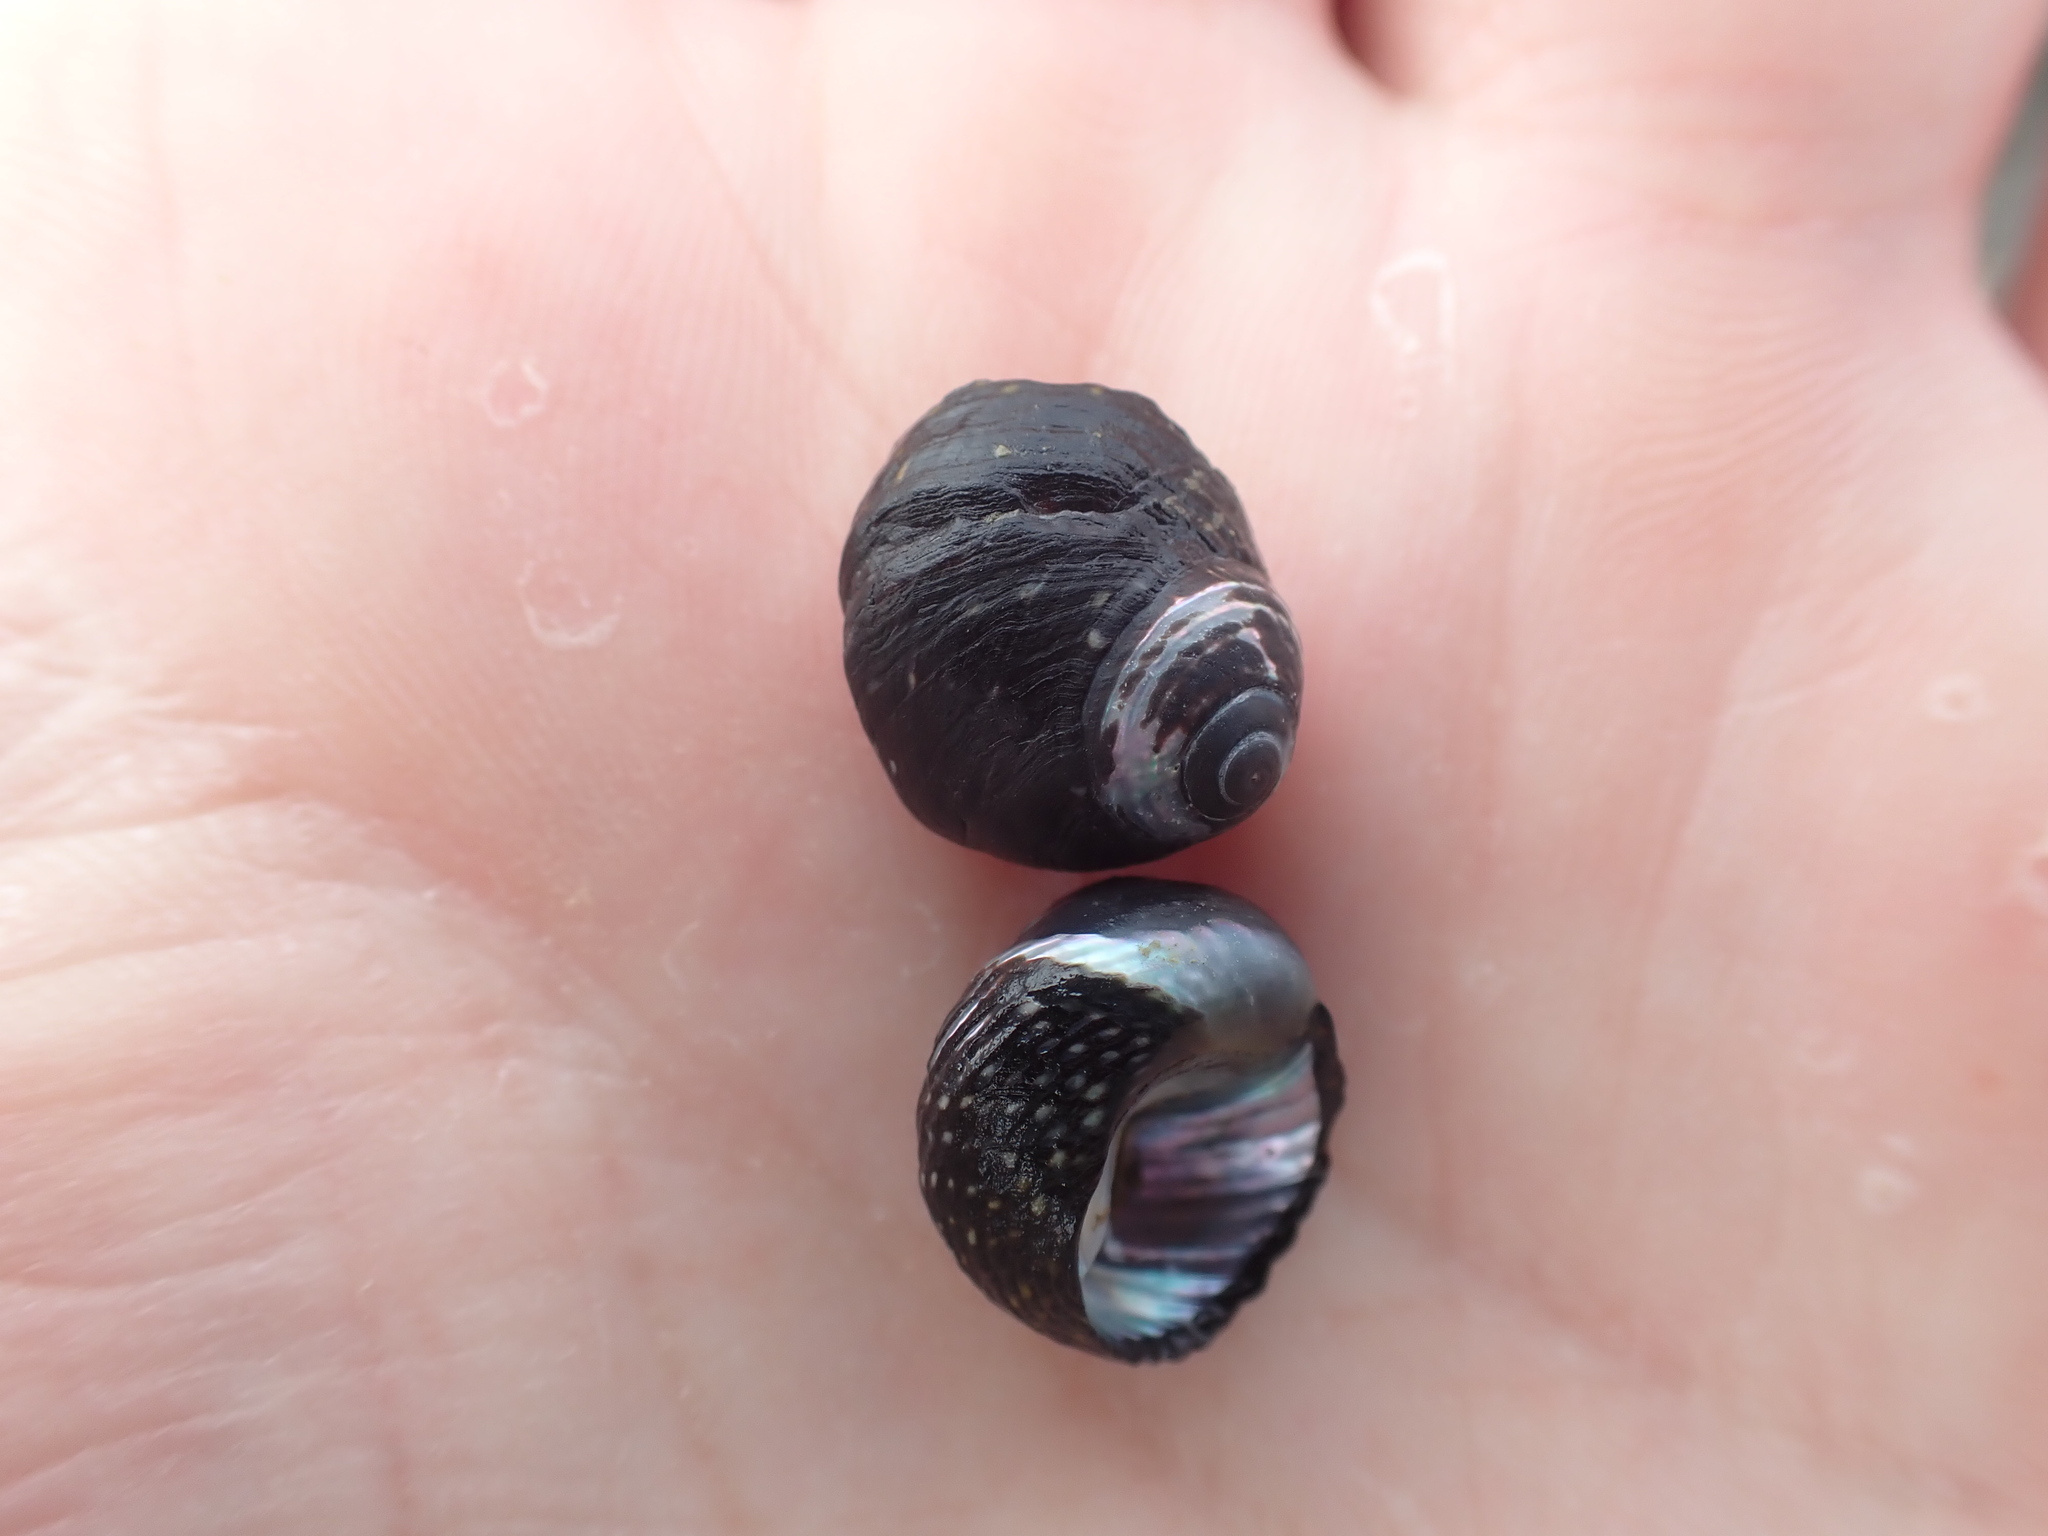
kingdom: Animalia
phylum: Mollusca
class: Gastropoda
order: Trochida
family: Trochidae
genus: Diloma
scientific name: Diloma aridum
